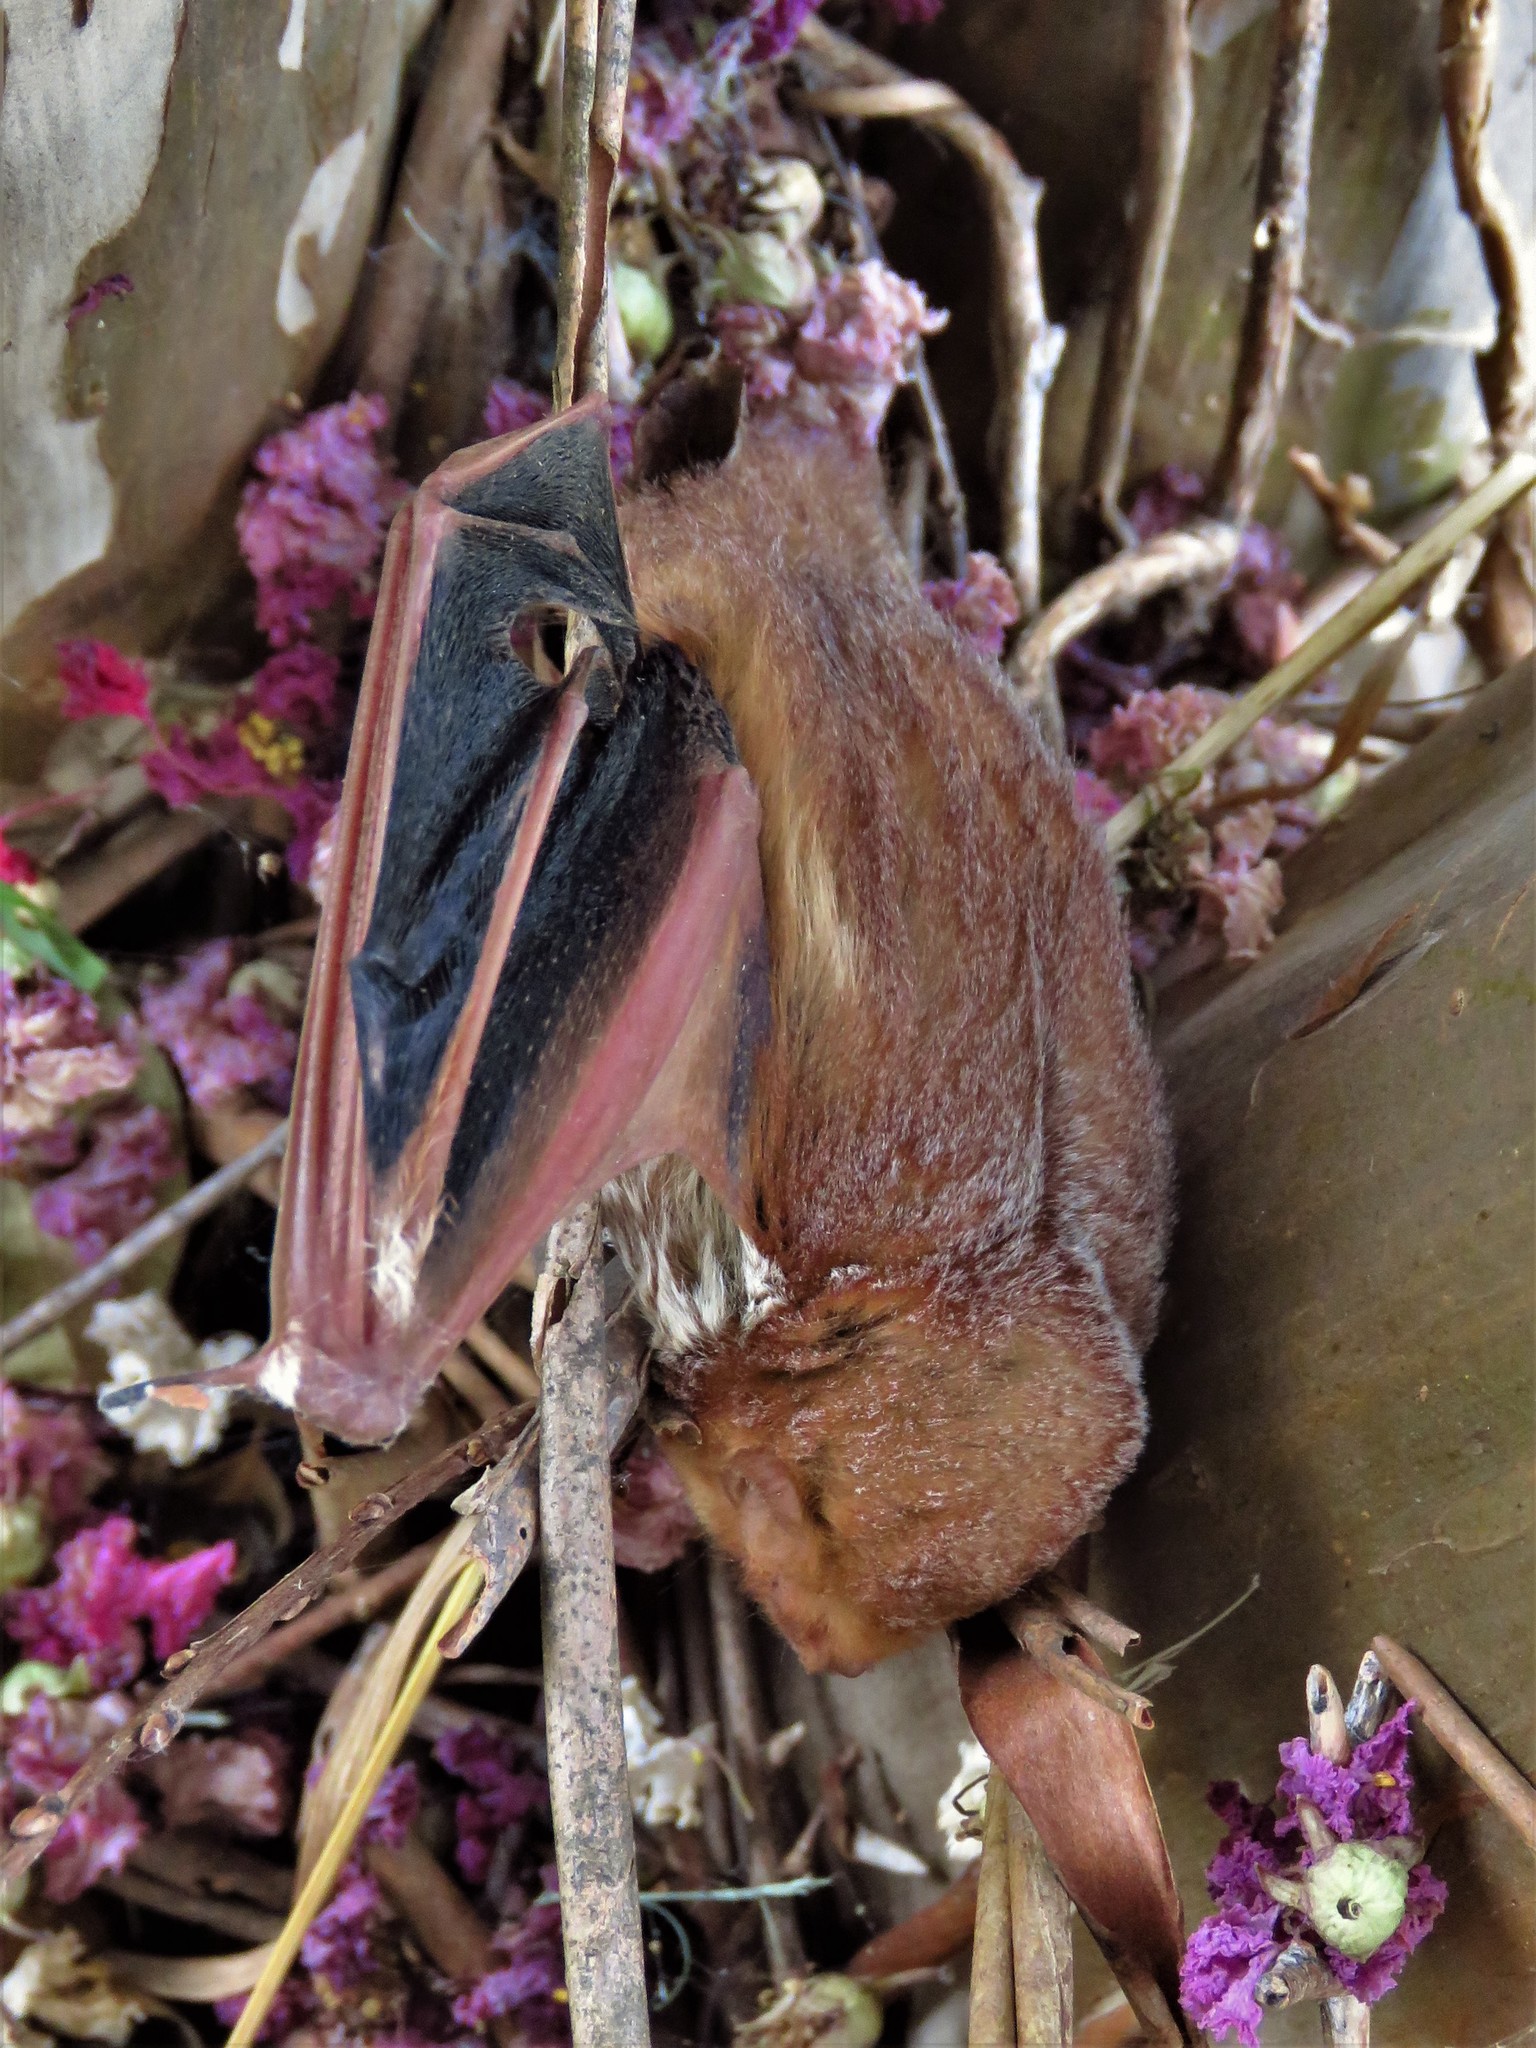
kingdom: Animalia
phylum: Chordata
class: Mammalia
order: Chiroptera
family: Vespertilionidae
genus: Lasiurus
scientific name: Lasiurus borealis
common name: Eastern red bat
